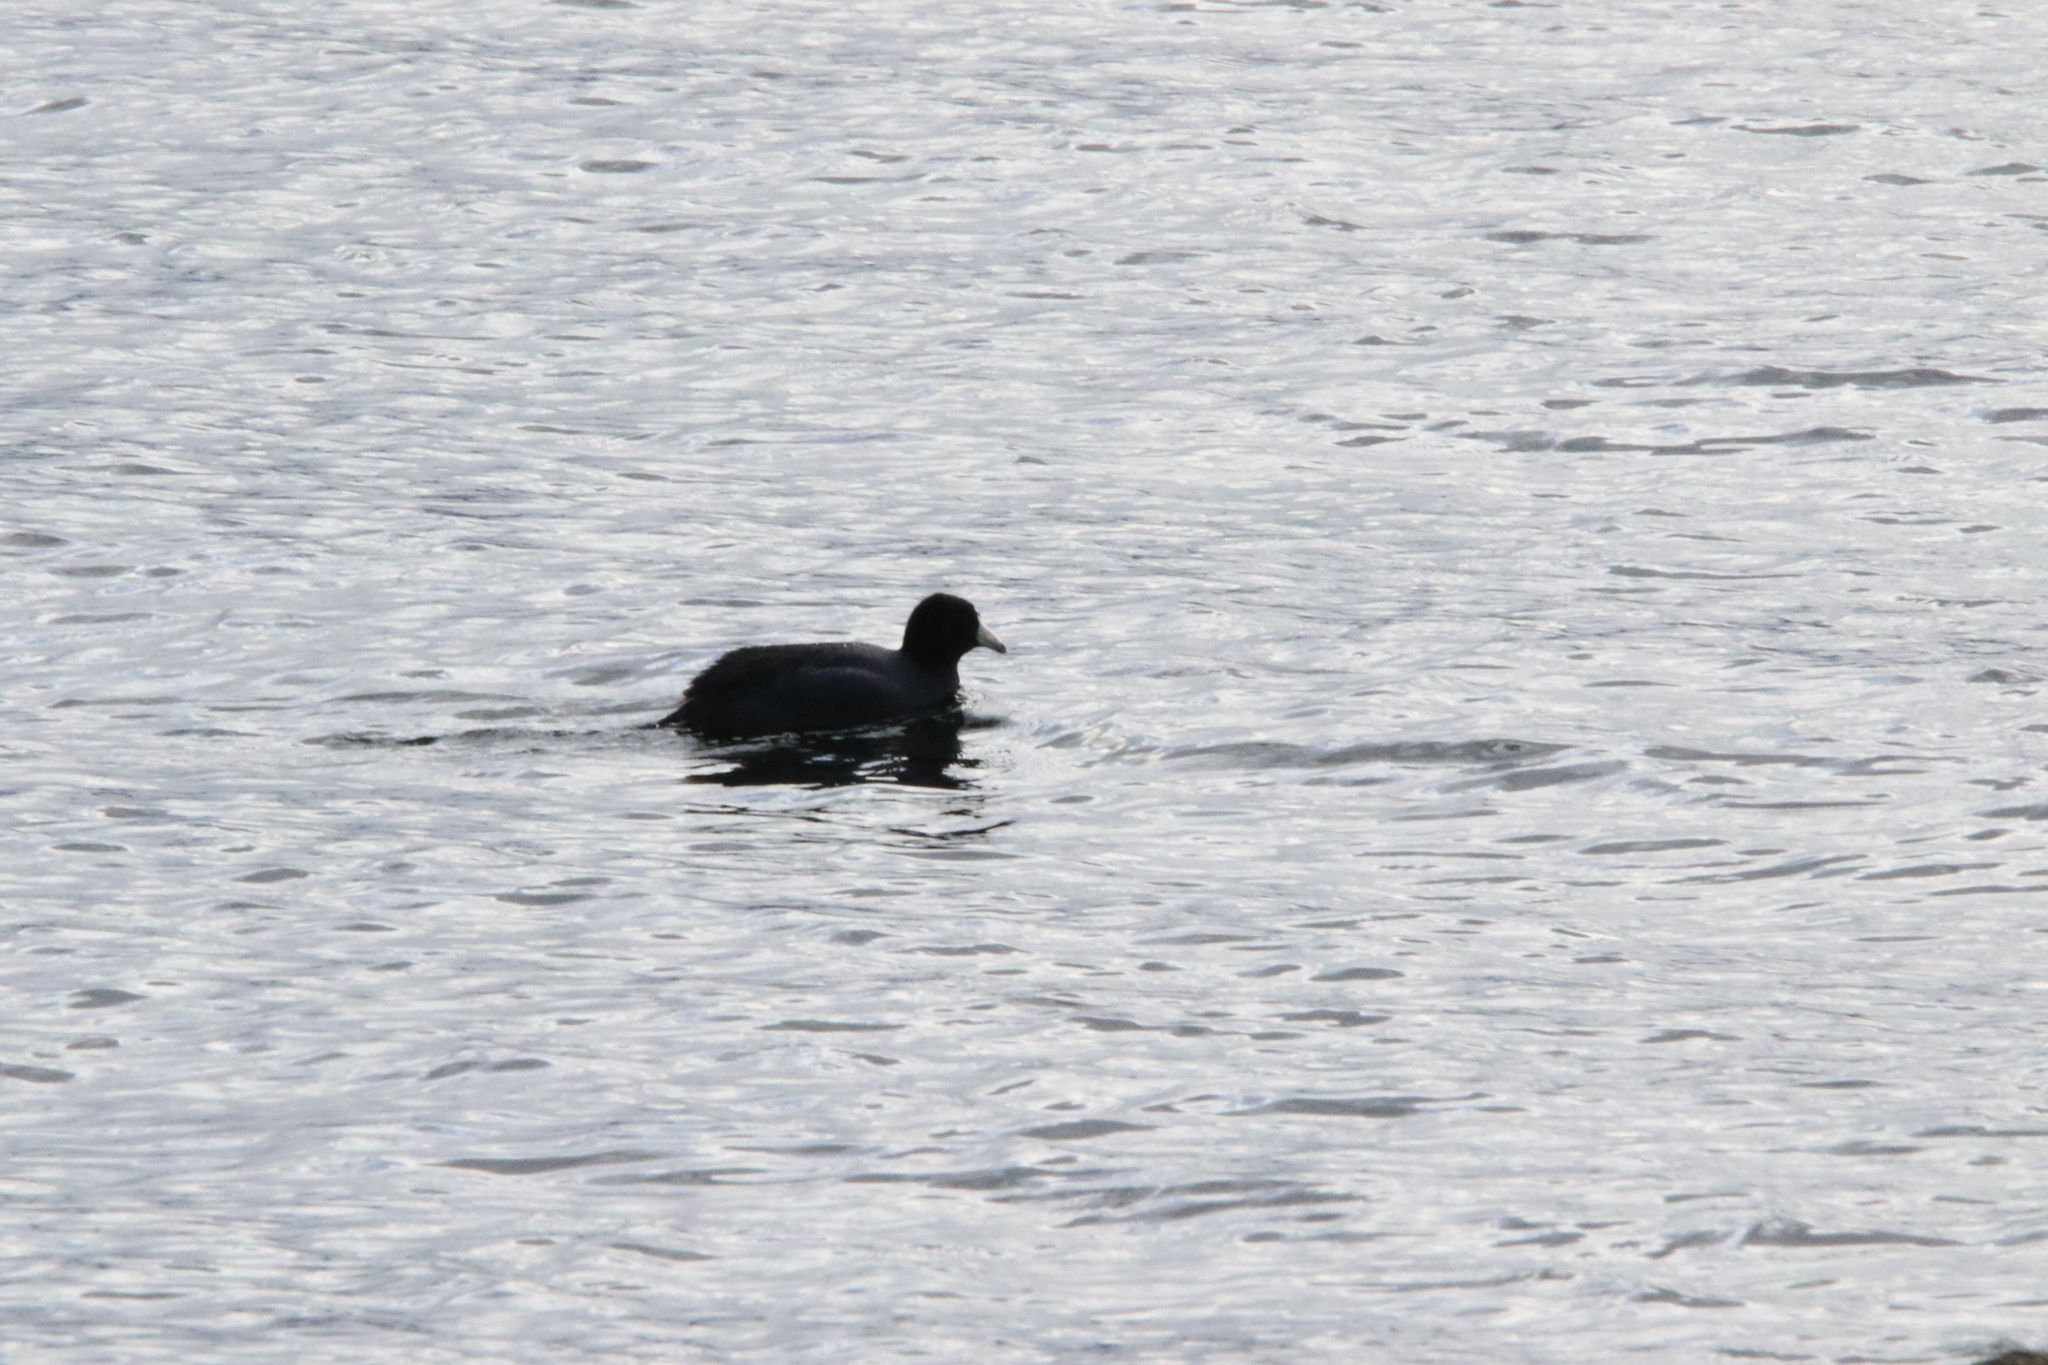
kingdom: Animalia
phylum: Chordata
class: Aves
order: Gruiformes
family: Rallidae
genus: Fulica
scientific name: Fulica americana
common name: American coot
